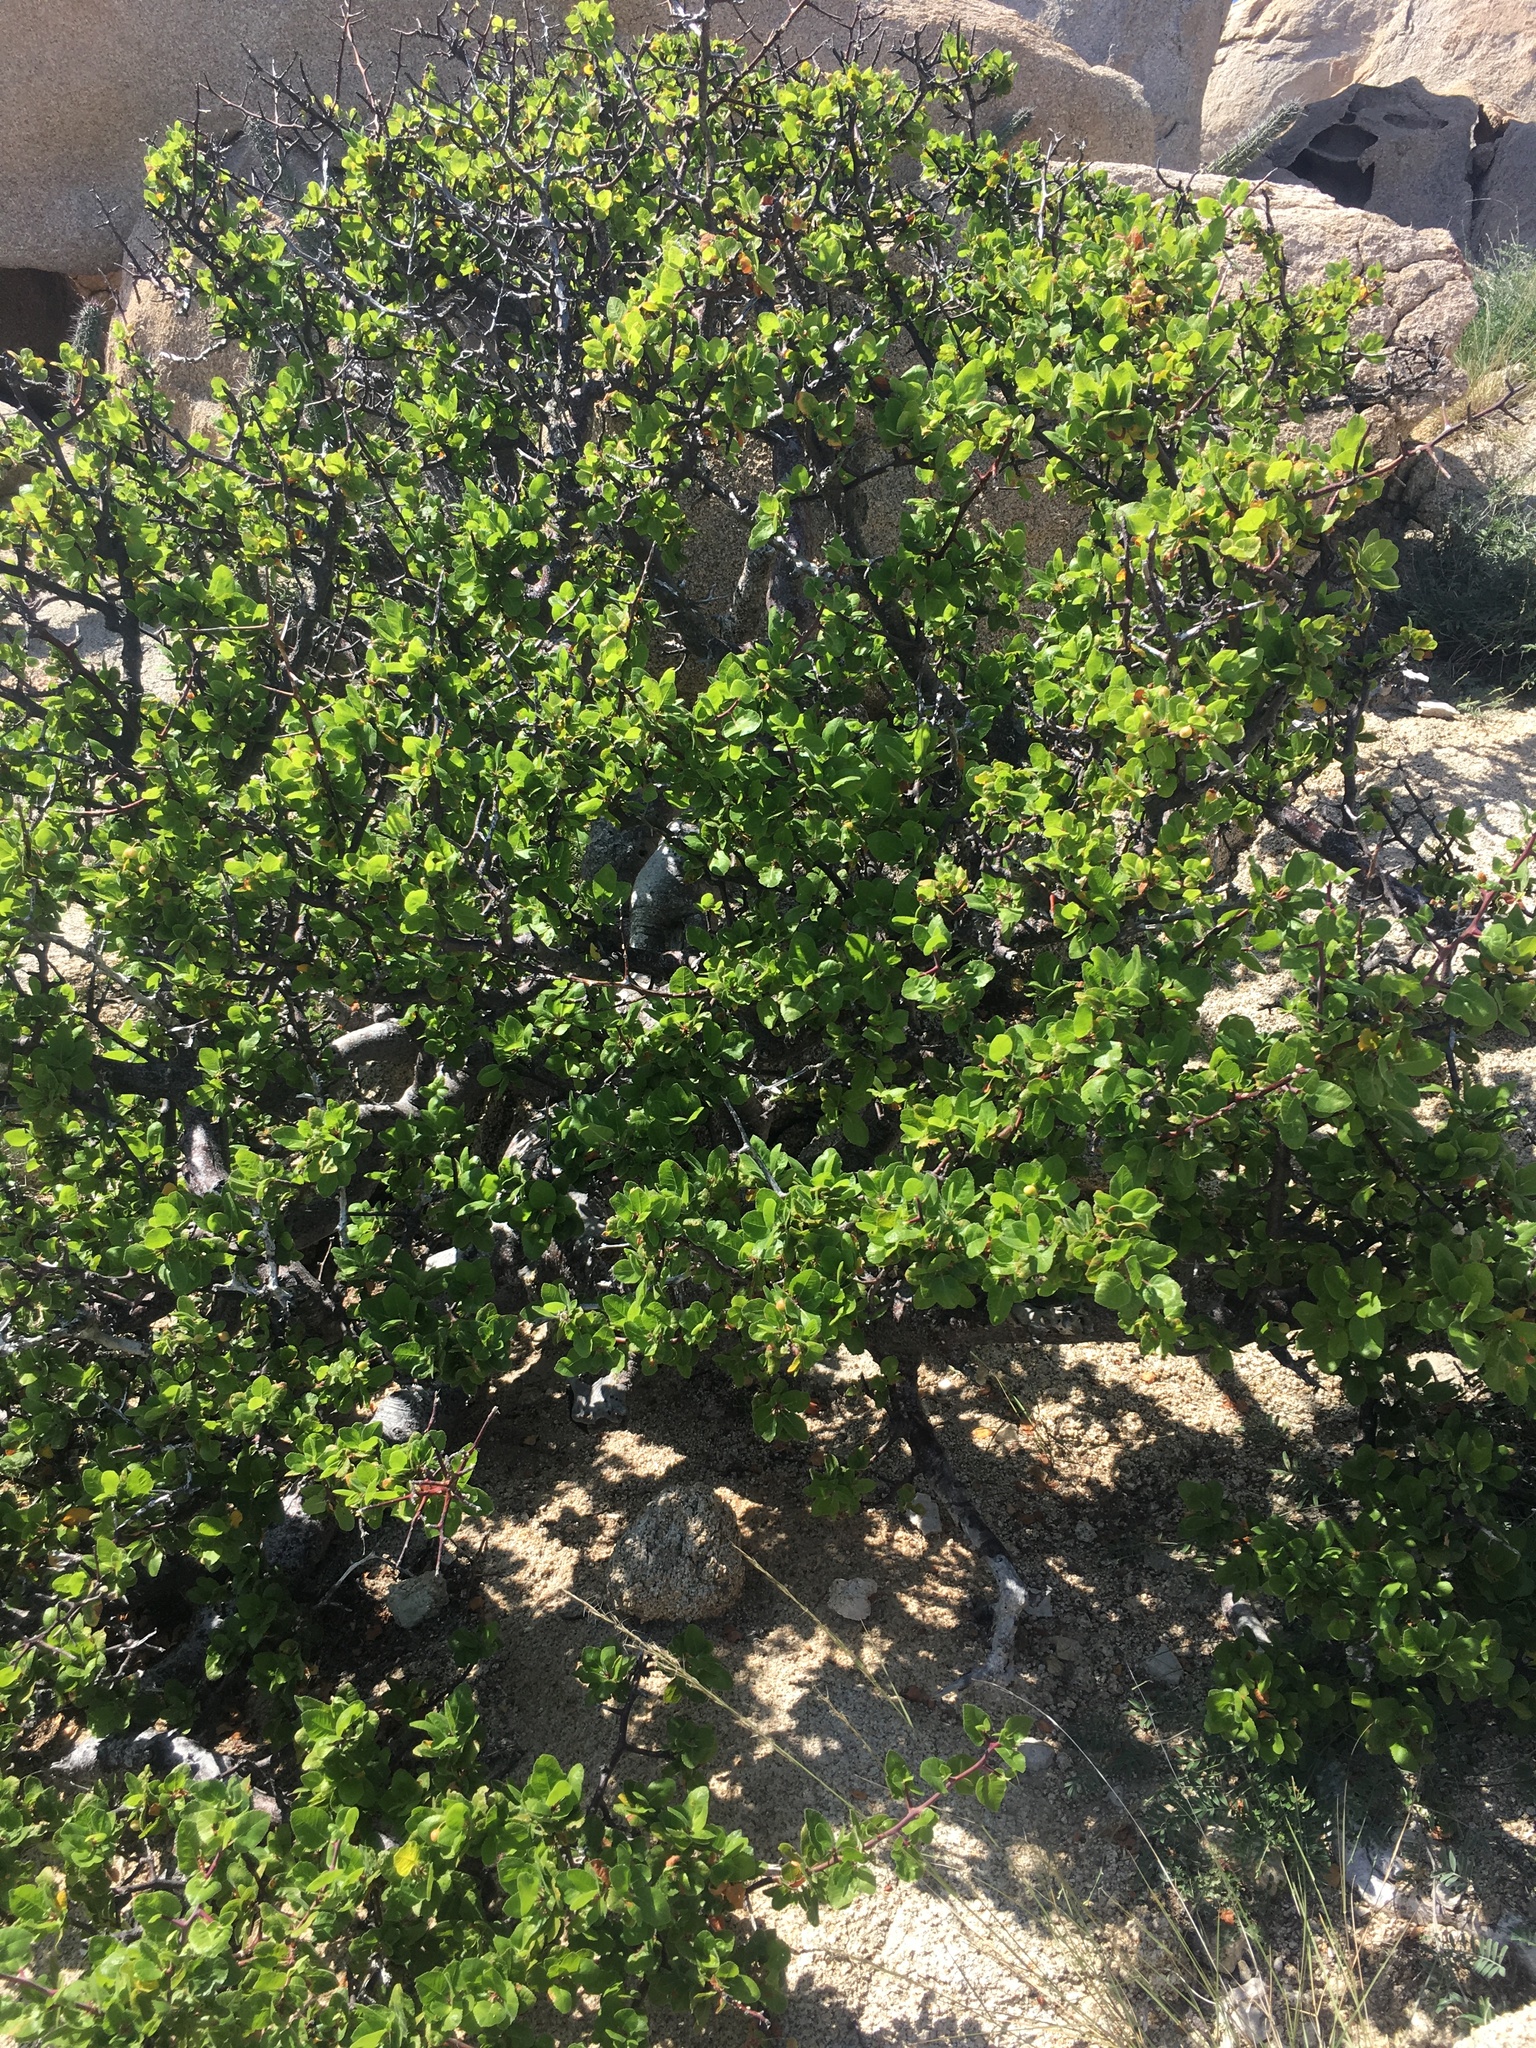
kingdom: Plantae
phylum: Tracheophyta
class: Magnoliopsida
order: Sapindales
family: Burseraceae
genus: Bursera
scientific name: Bursera hindsiana
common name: Red elephant tree
